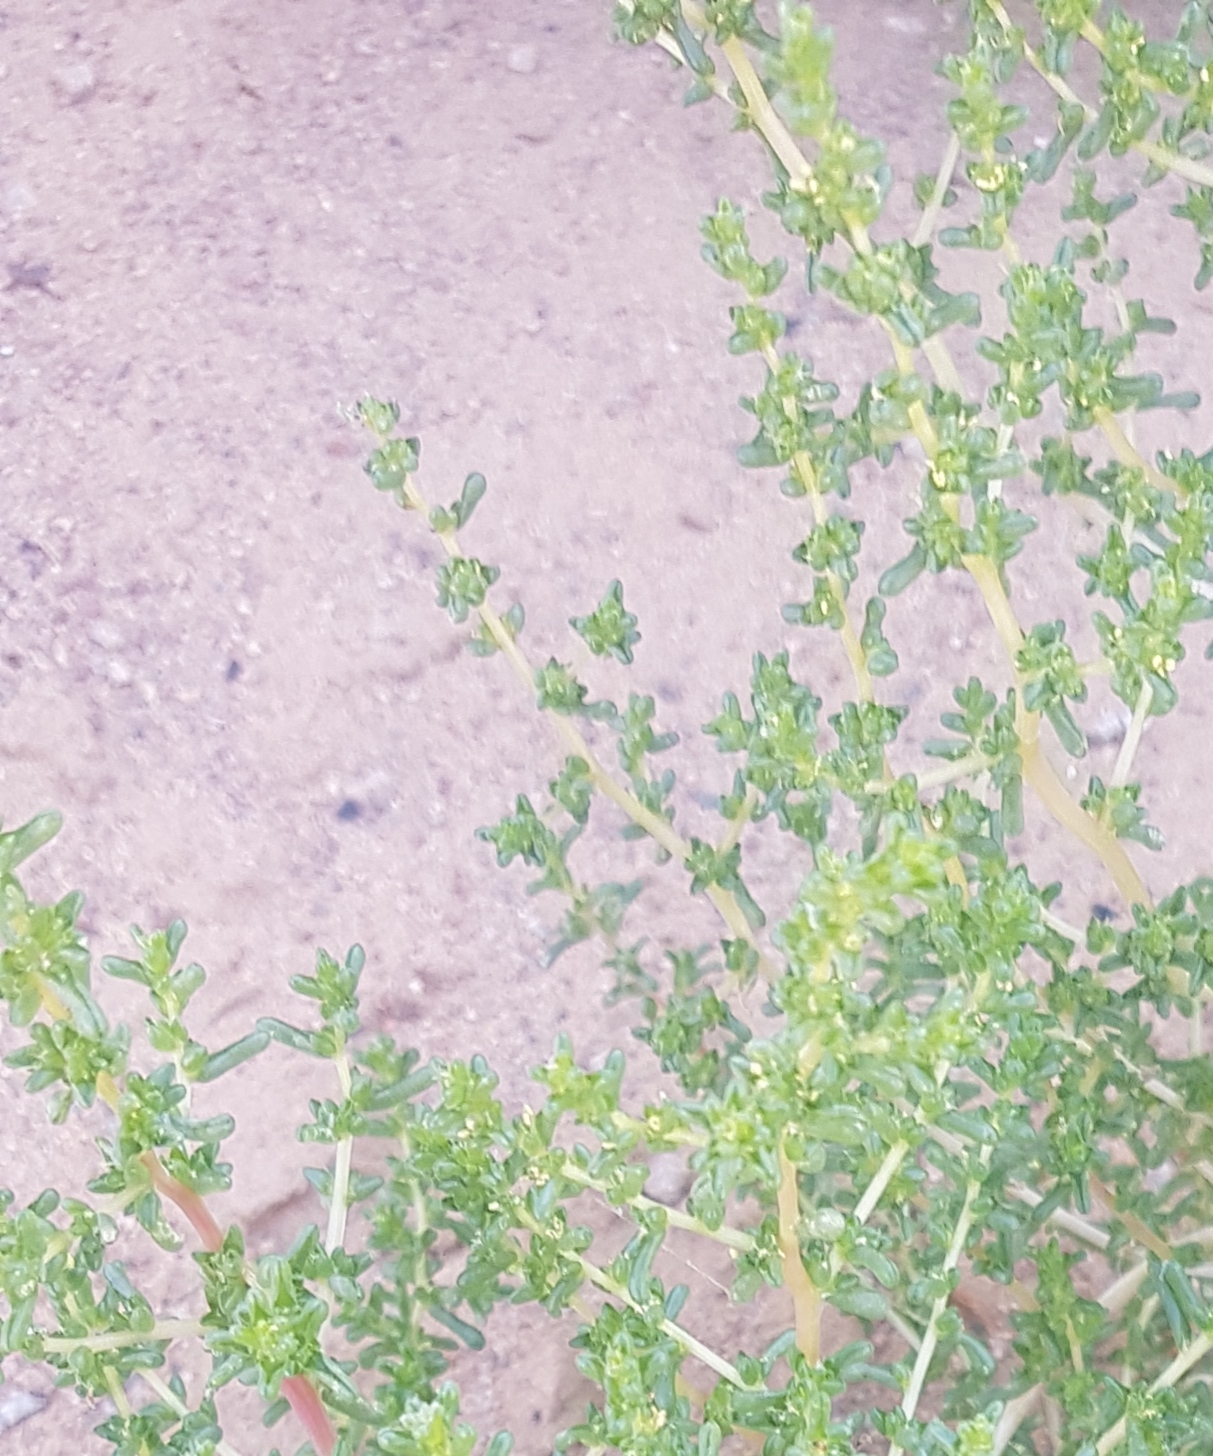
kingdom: Plantae
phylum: Tracheophyta
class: Magnoliopsida
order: Caryophyllales
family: Amaranthaceae
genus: Suaeda
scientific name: Suaeda kossinskyi
